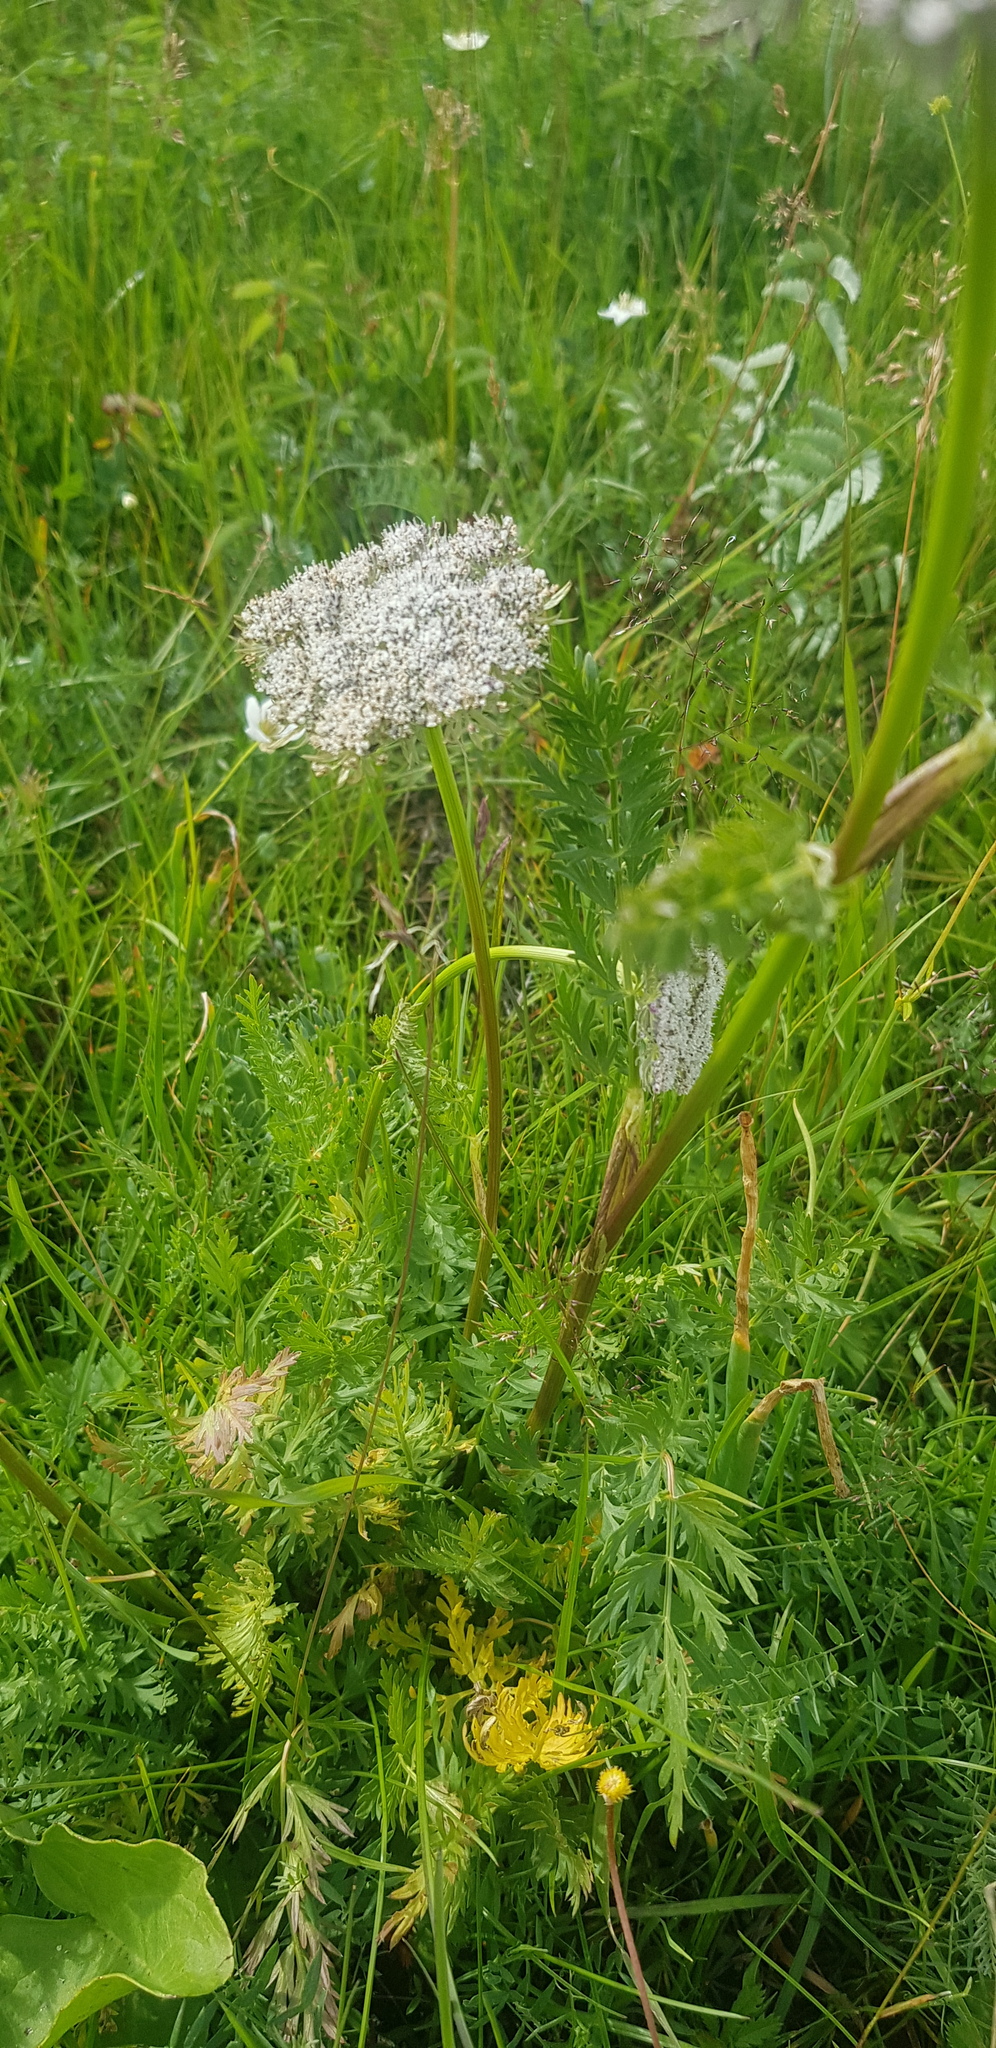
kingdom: Plantae
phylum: Tracheophyta
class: Magnoliopsida
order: Apiales
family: Apiaceae
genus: Seseli
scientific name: Seseli condensatum
